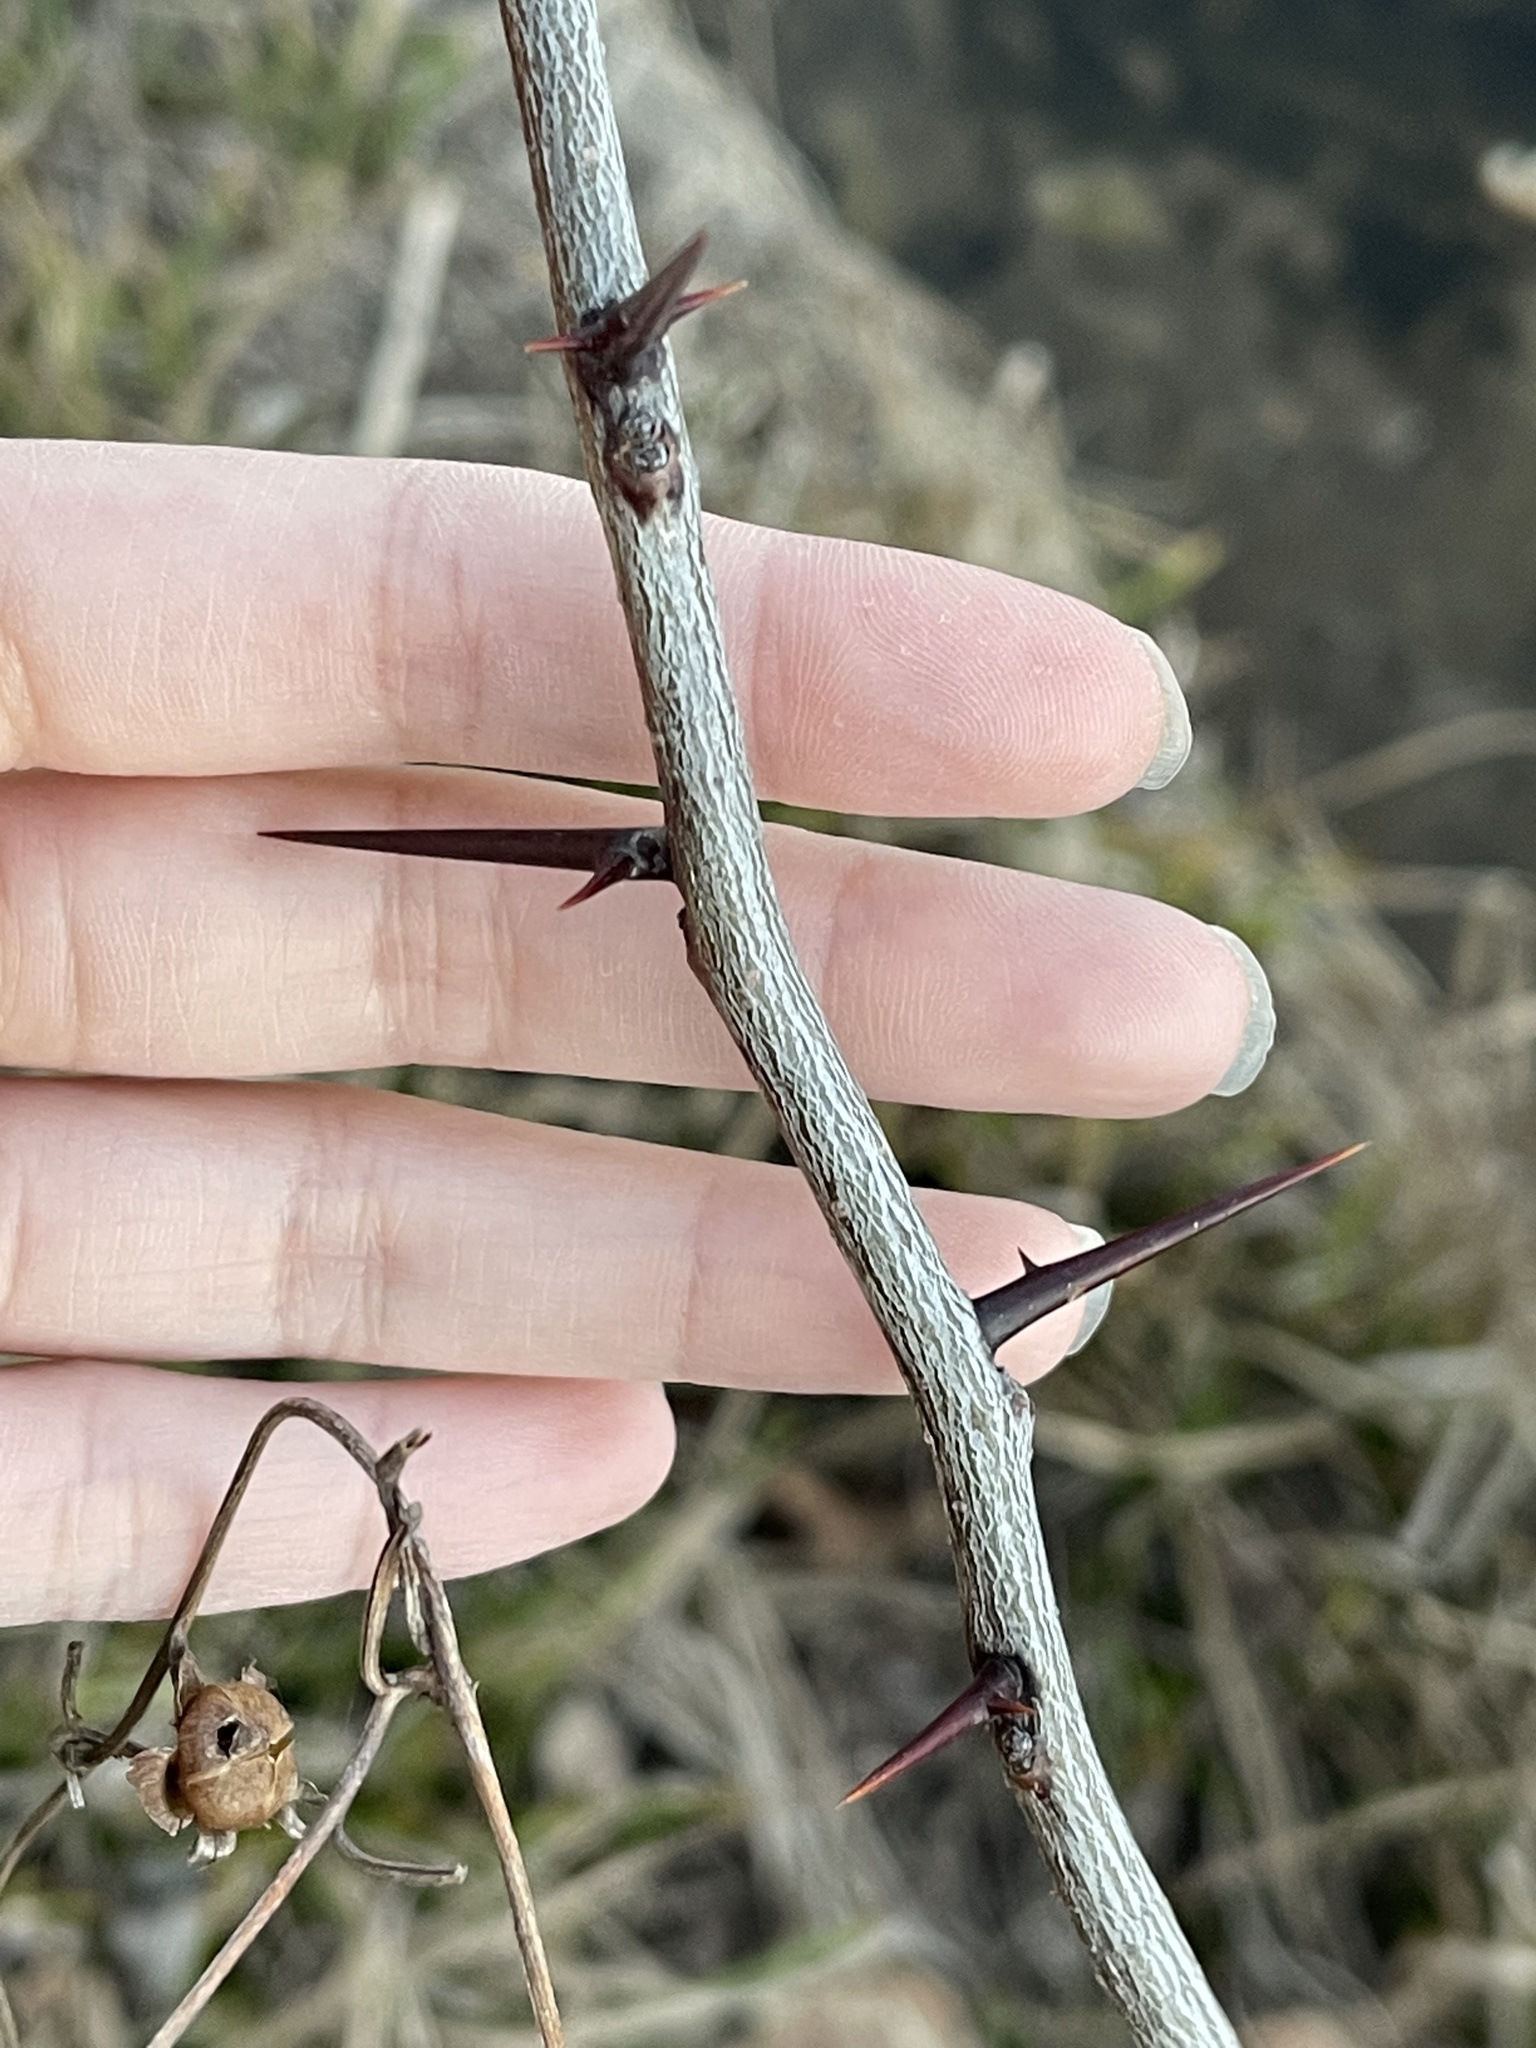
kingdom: Plantae
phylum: Tracheophyta
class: Magnoliopsida
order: Fabales
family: Fabaceae
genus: Gleditsia
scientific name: Gleditsia triacanthos
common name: Common honeylocust
